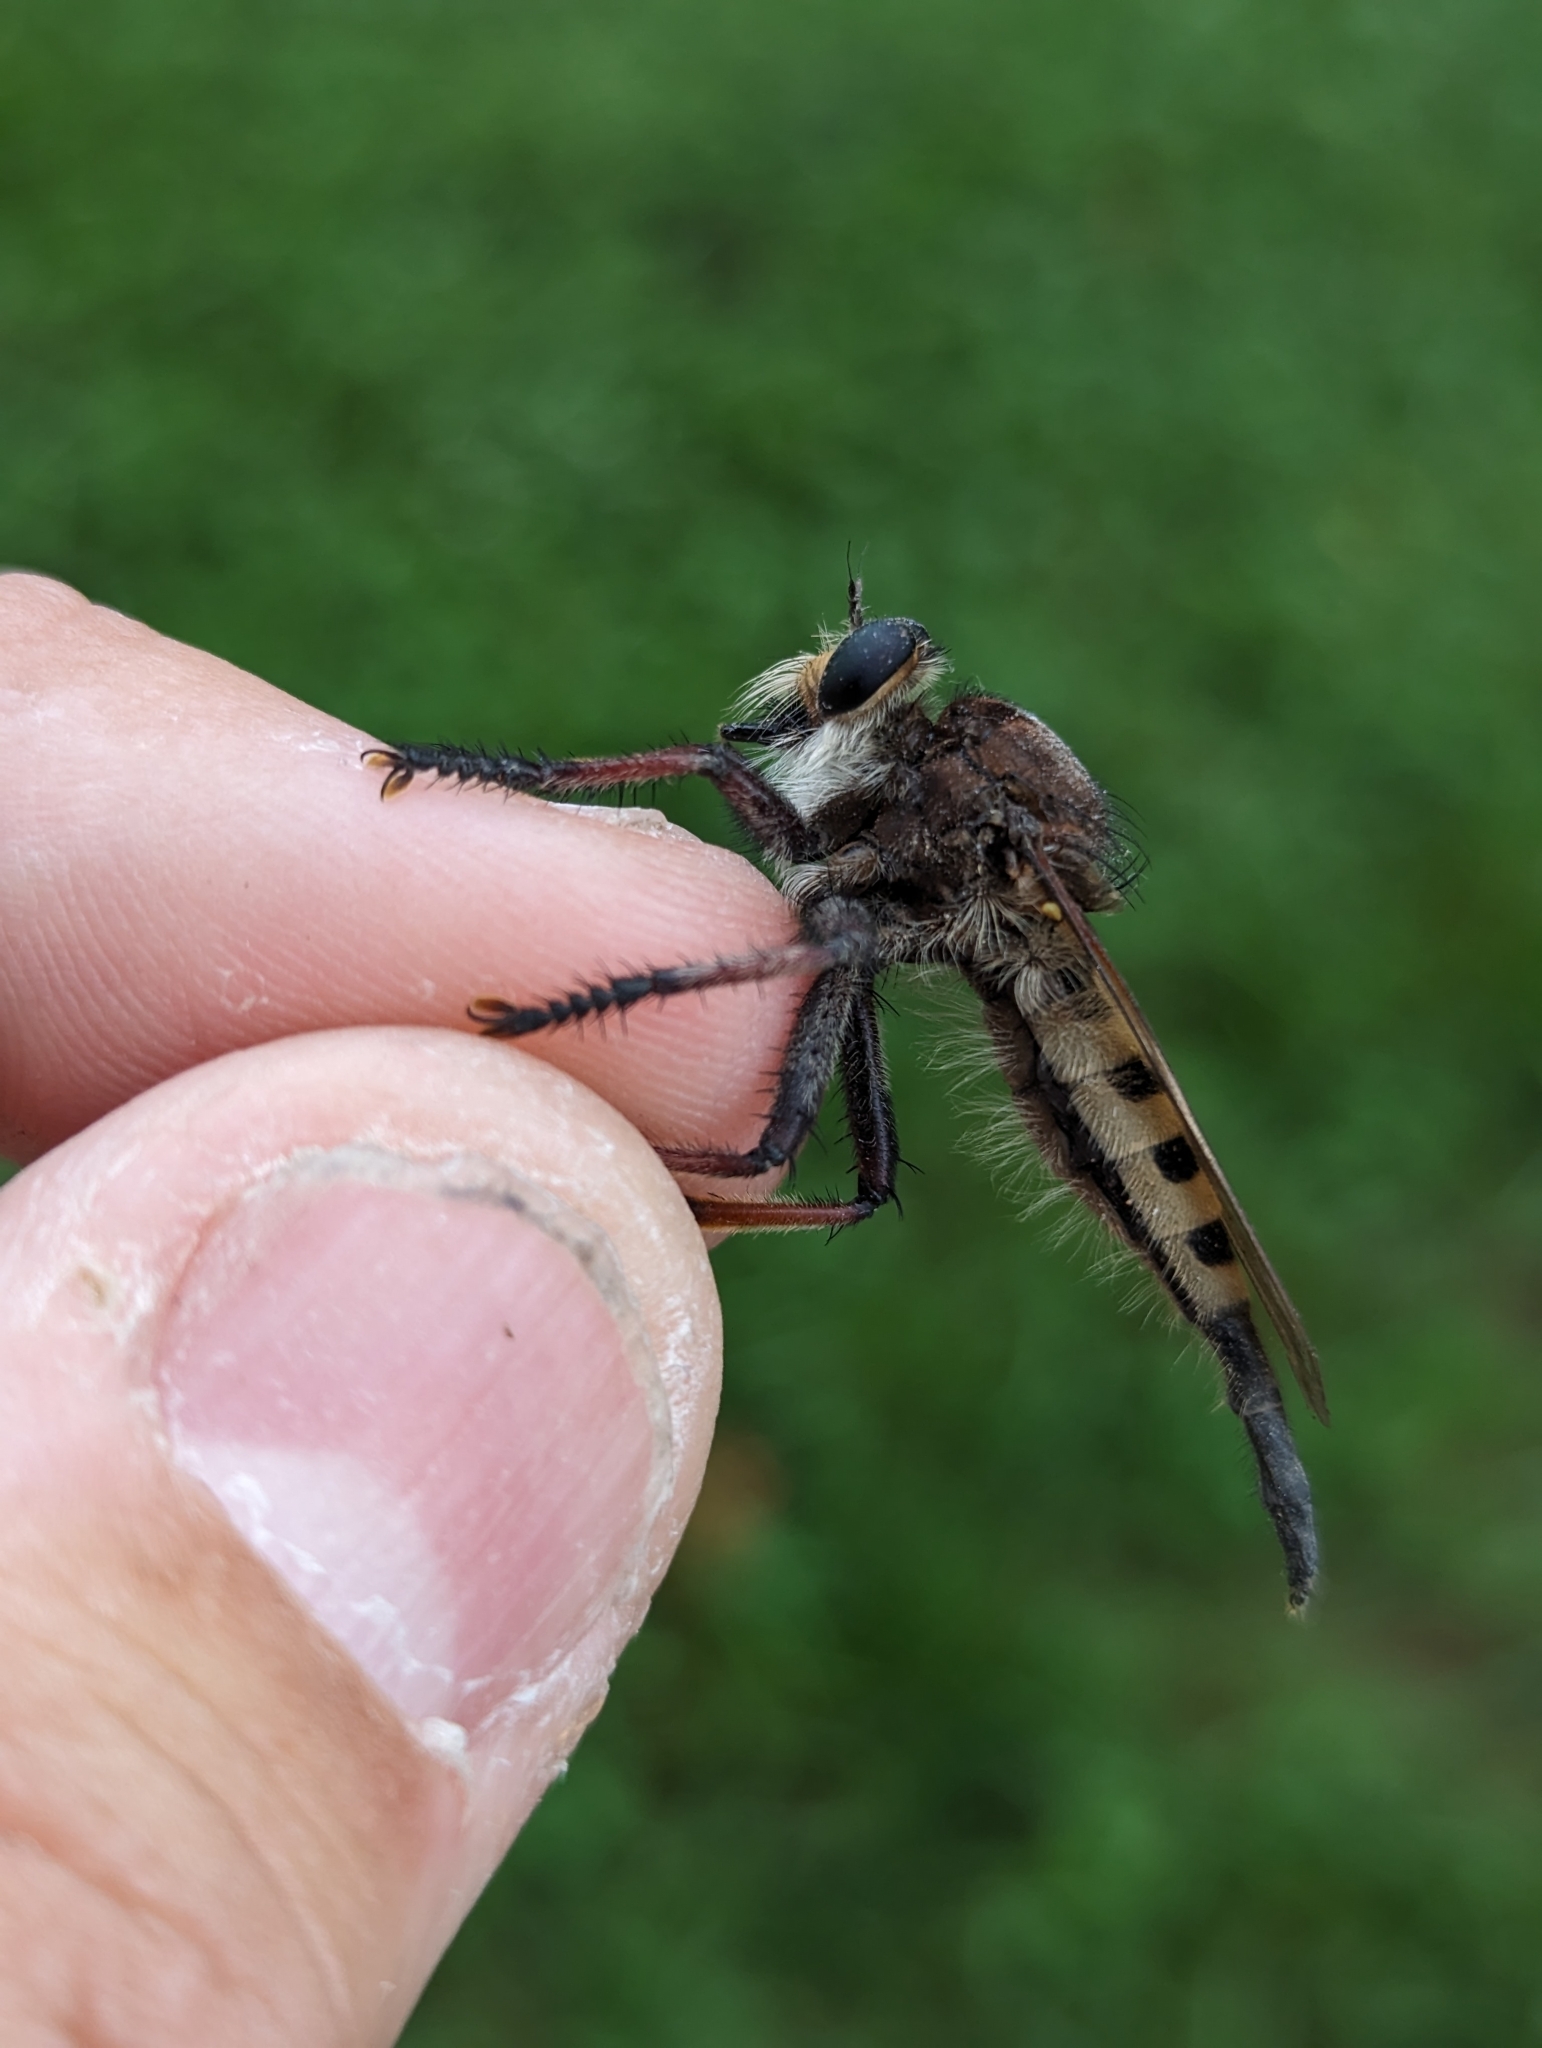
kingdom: Animalia
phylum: Arthropoda
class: Insecta
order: Diptera
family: Asilidae
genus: Promachus
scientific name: Promachus hinei
